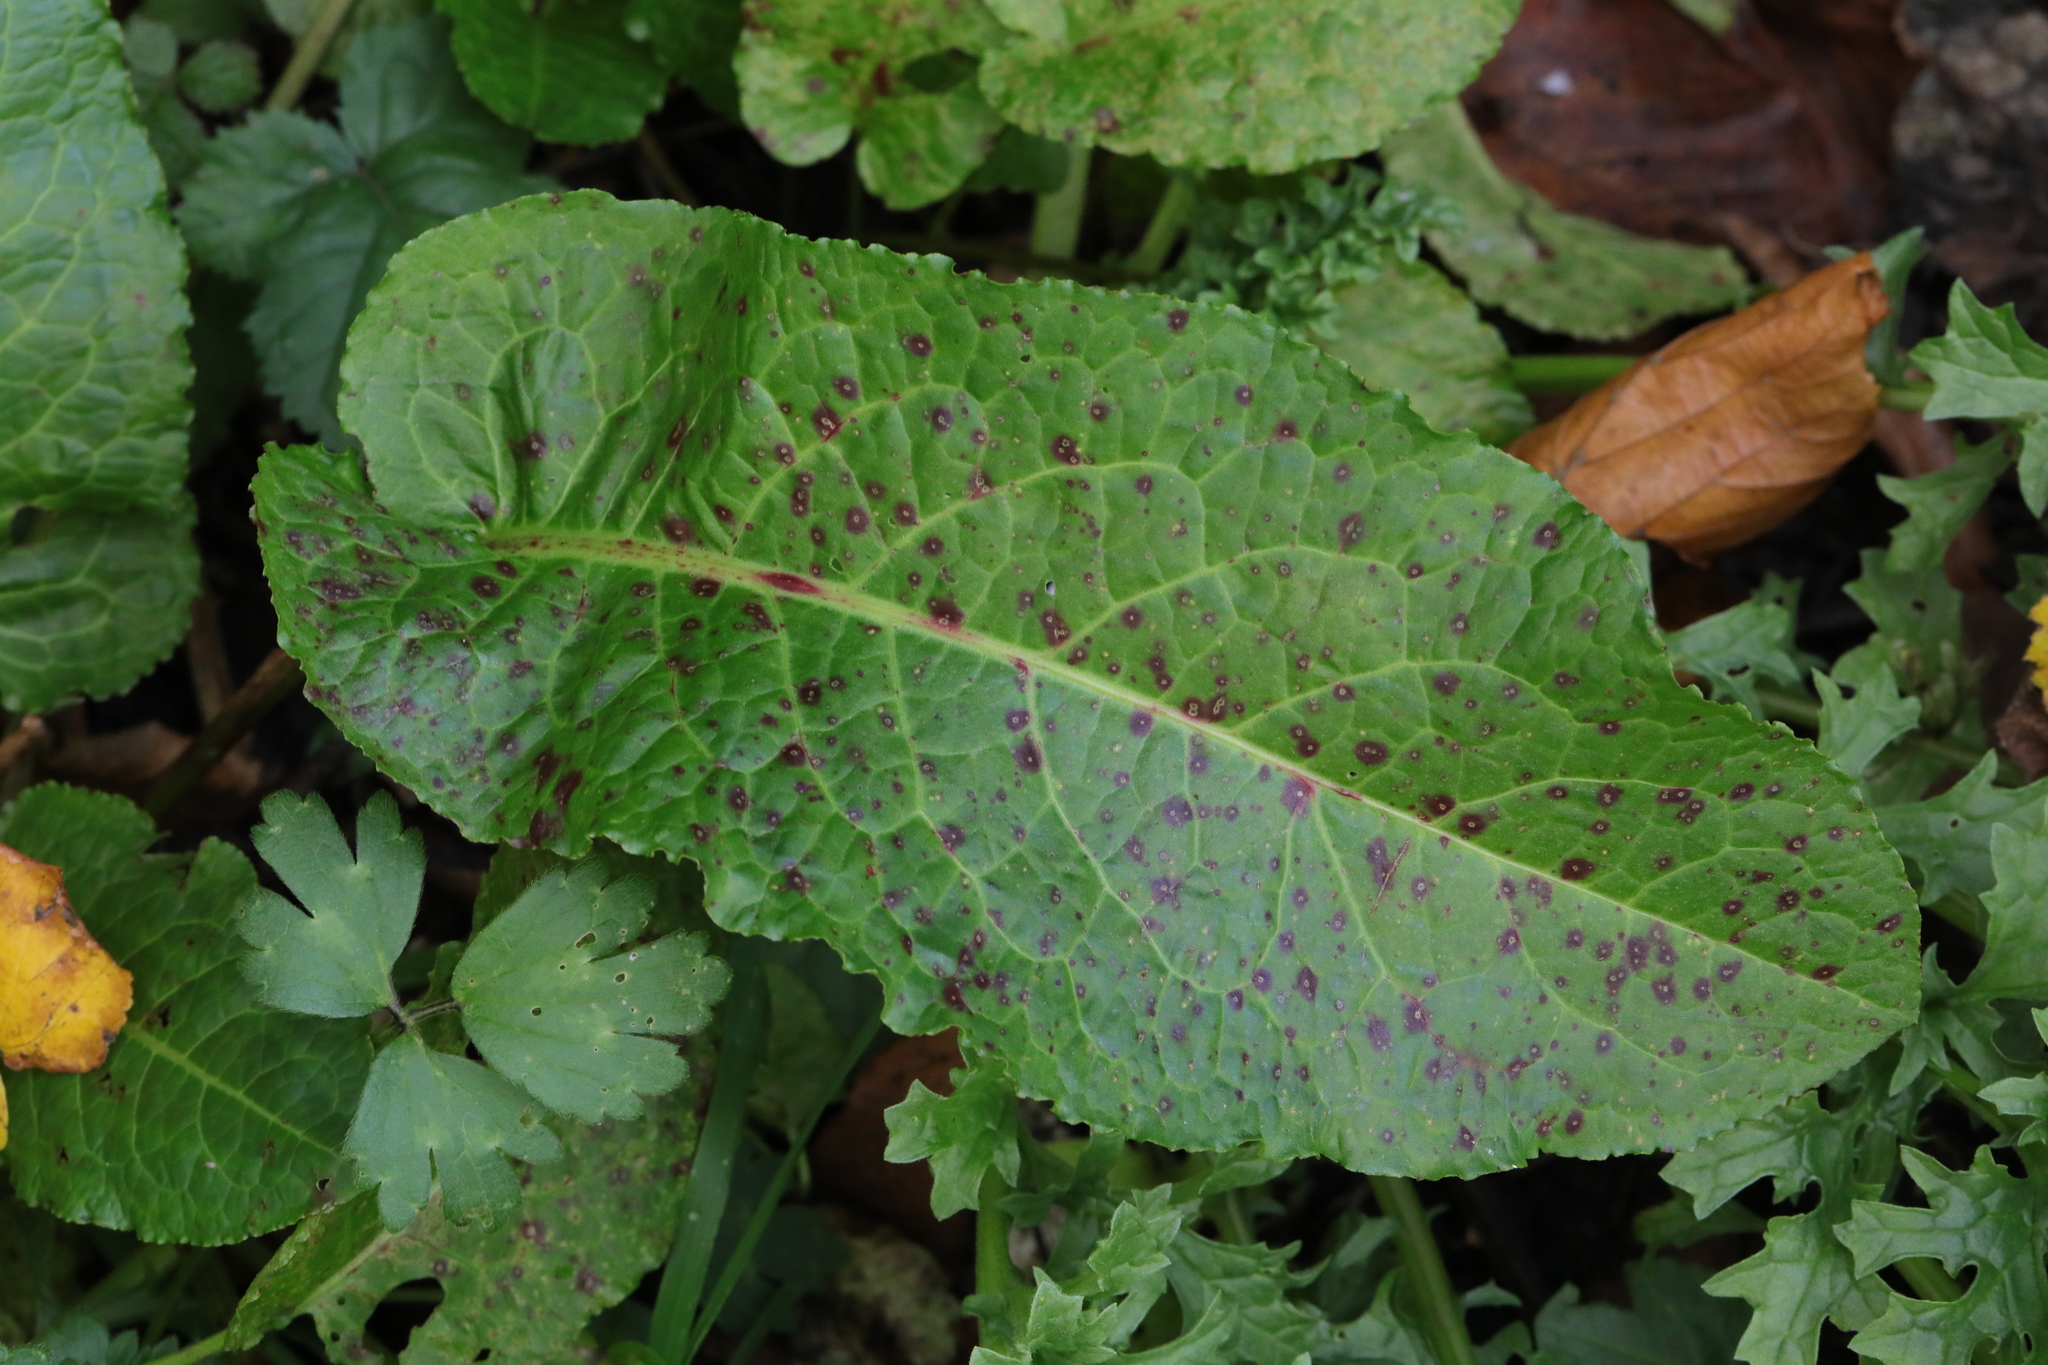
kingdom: Plantae
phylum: Tracheophyta
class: Magnoliopsida
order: Caryophyllales
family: Polygonaceae
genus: Rumex
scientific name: Rumex obtusifolius
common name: Bitter dock
